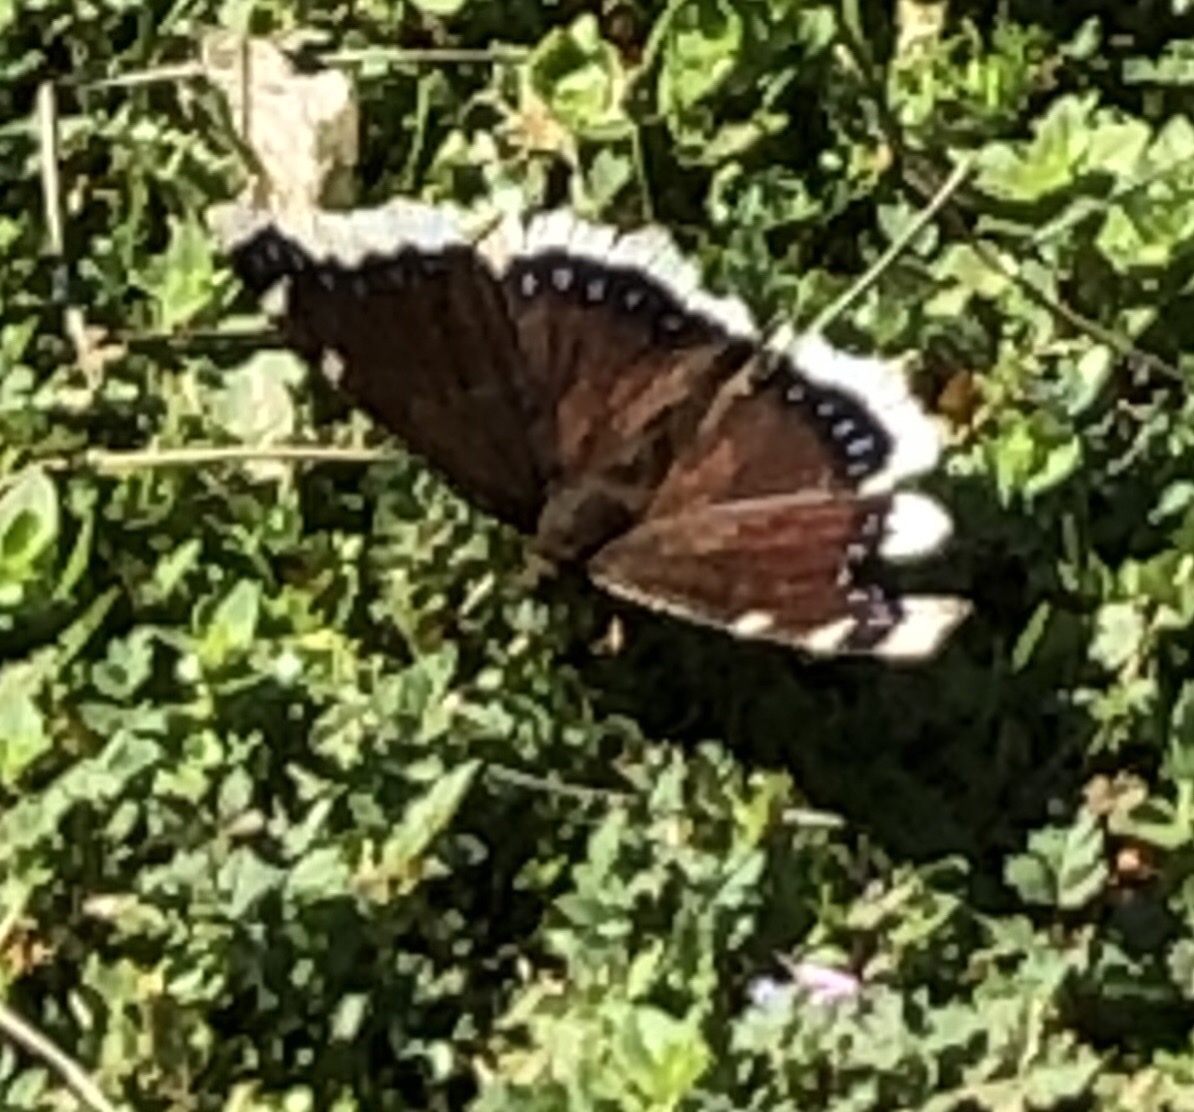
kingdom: Animalia
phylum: Arthropoda
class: Insecta
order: Lepidoptera
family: Nymphalidae
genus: Nymphalis
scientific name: Nymphalis antiopa
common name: Camberwell beauty
